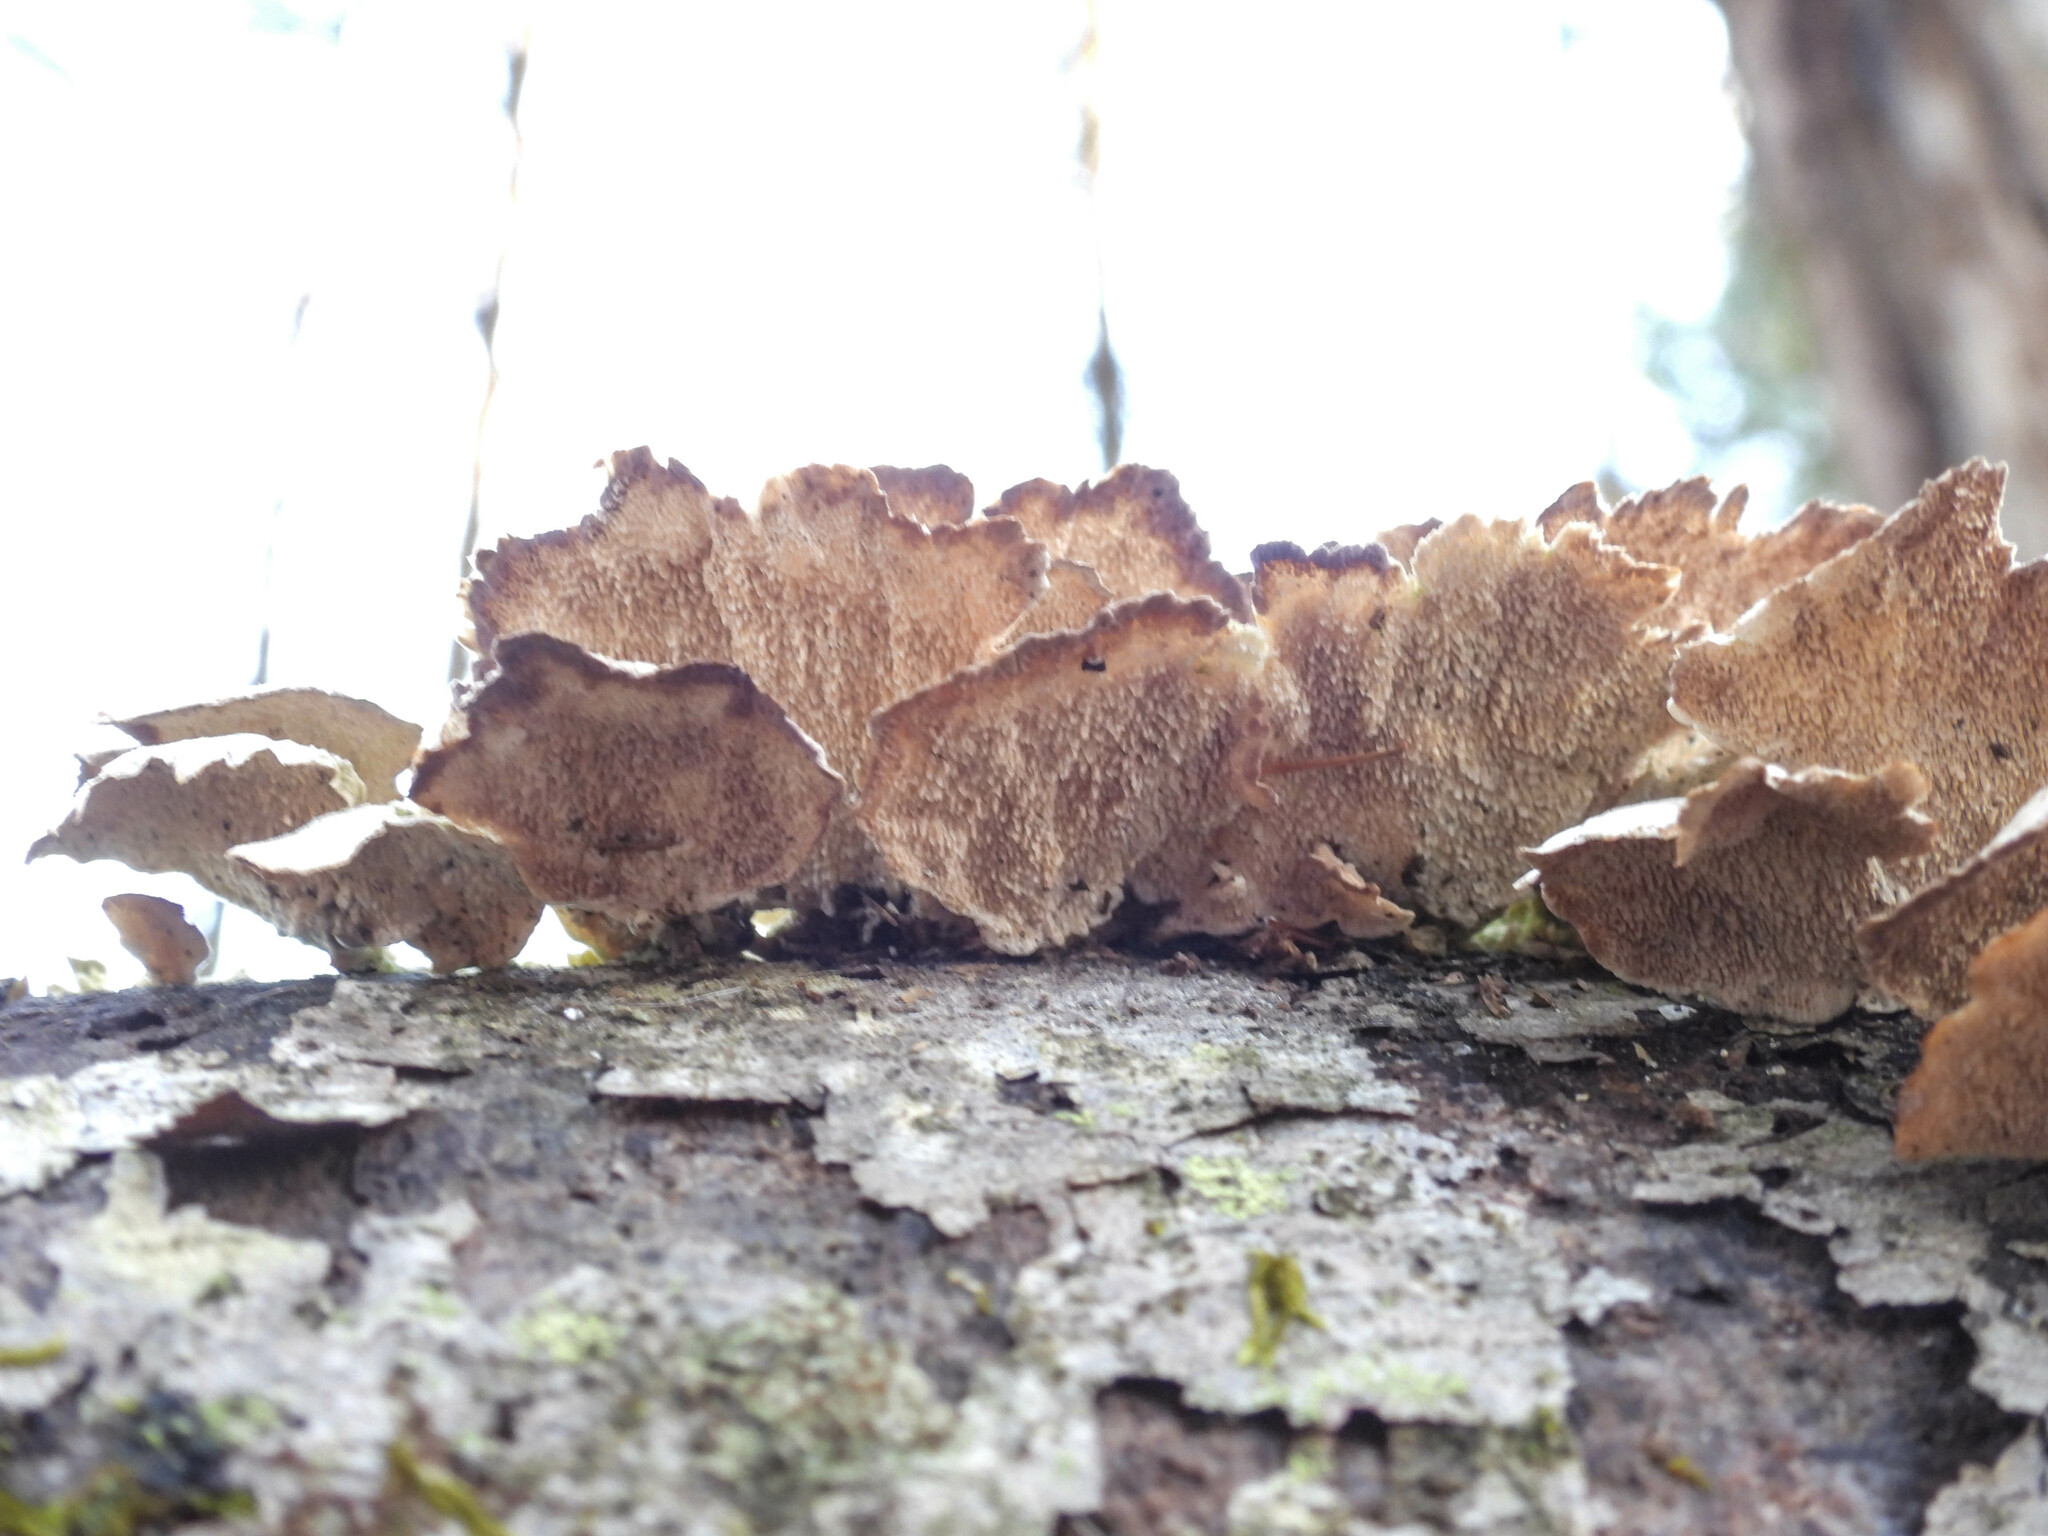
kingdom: Fungi
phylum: Basidiomycota
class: Agaricomycetes
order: Hymenochaetales
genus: Trichaptum
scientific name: Trichaptum biforme
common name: Violet-toothed polypore
